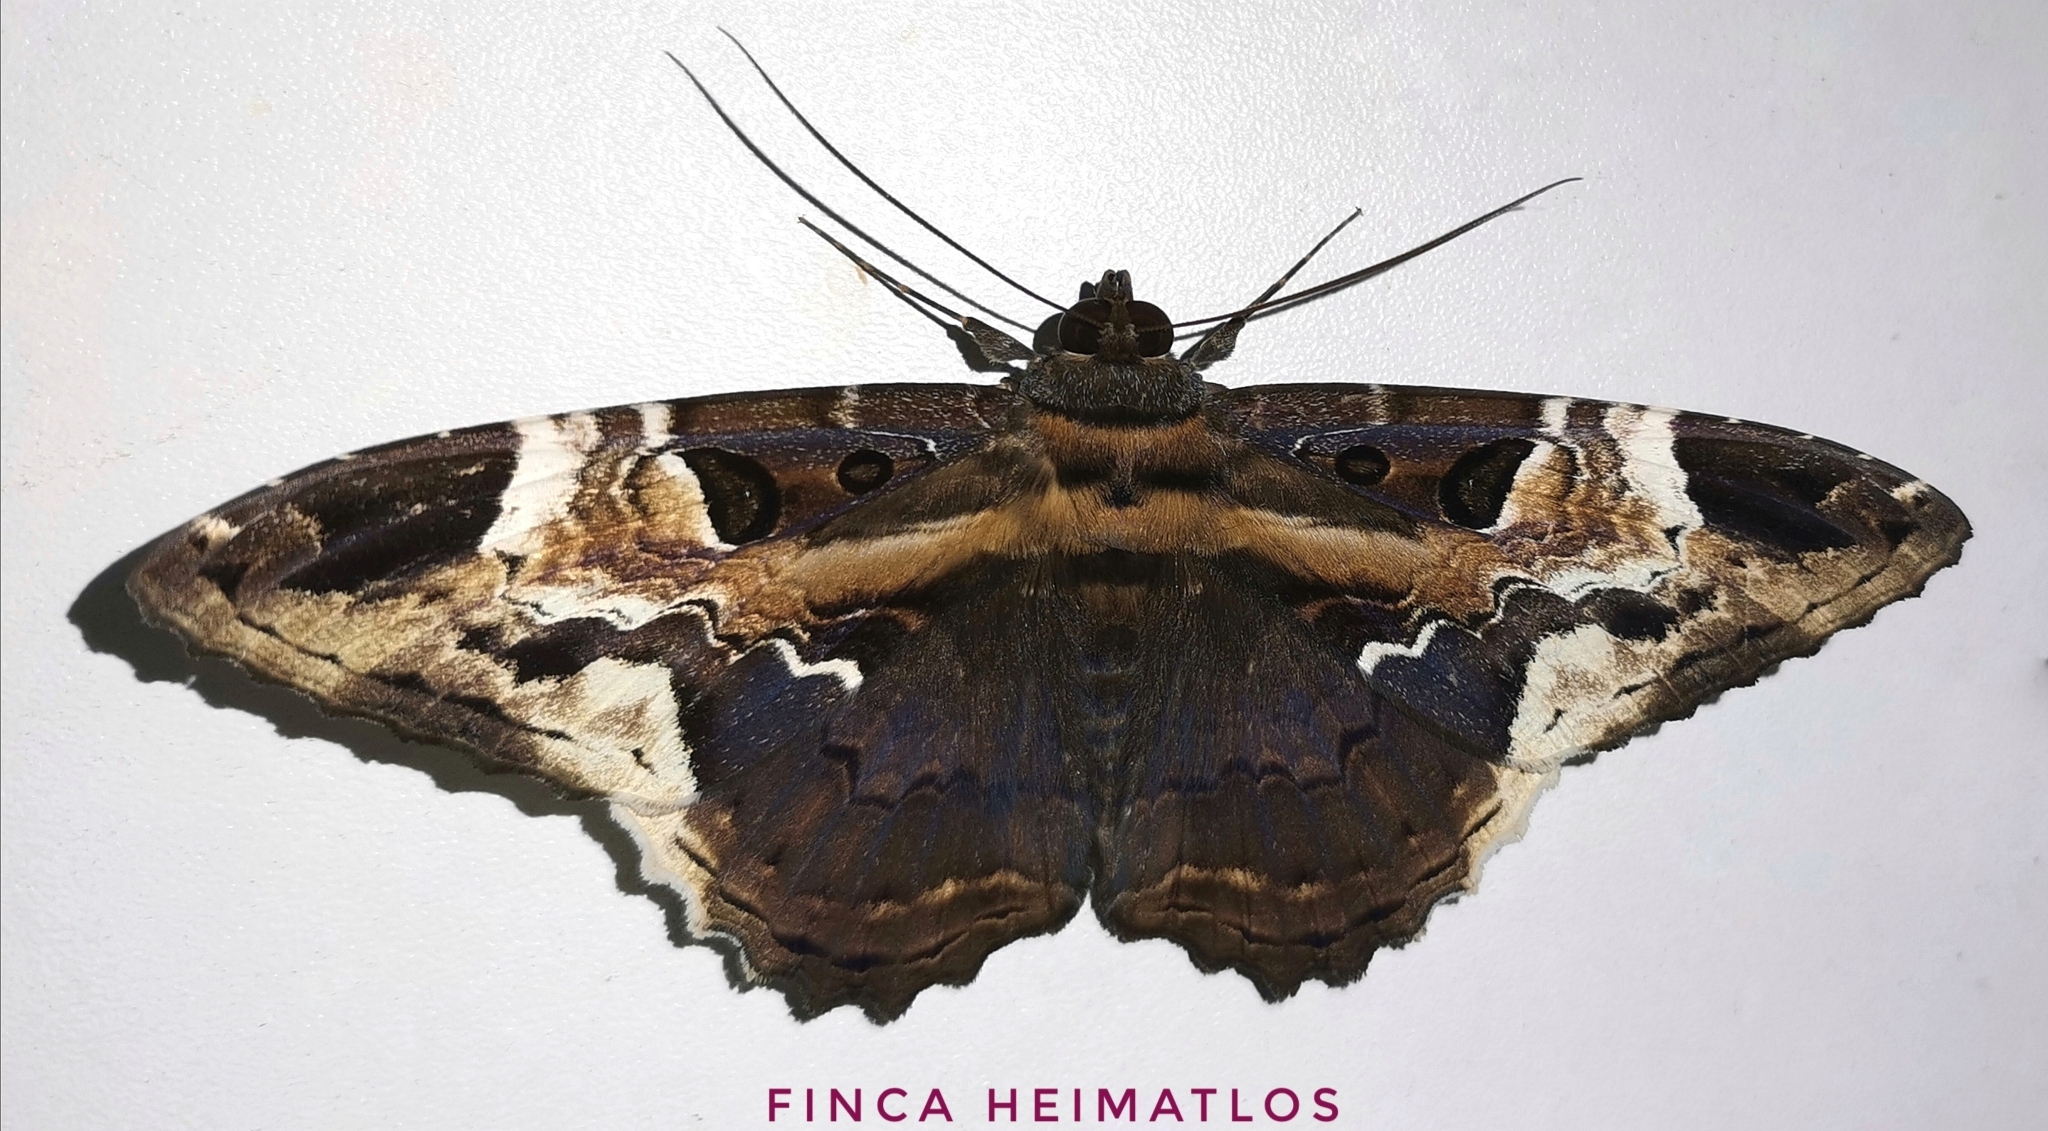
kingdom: Animalia
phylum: Arthropoda
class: Insecta
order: Lepidoptera
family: Erebidae
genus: Feigeria
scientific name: Feigeria herilia
